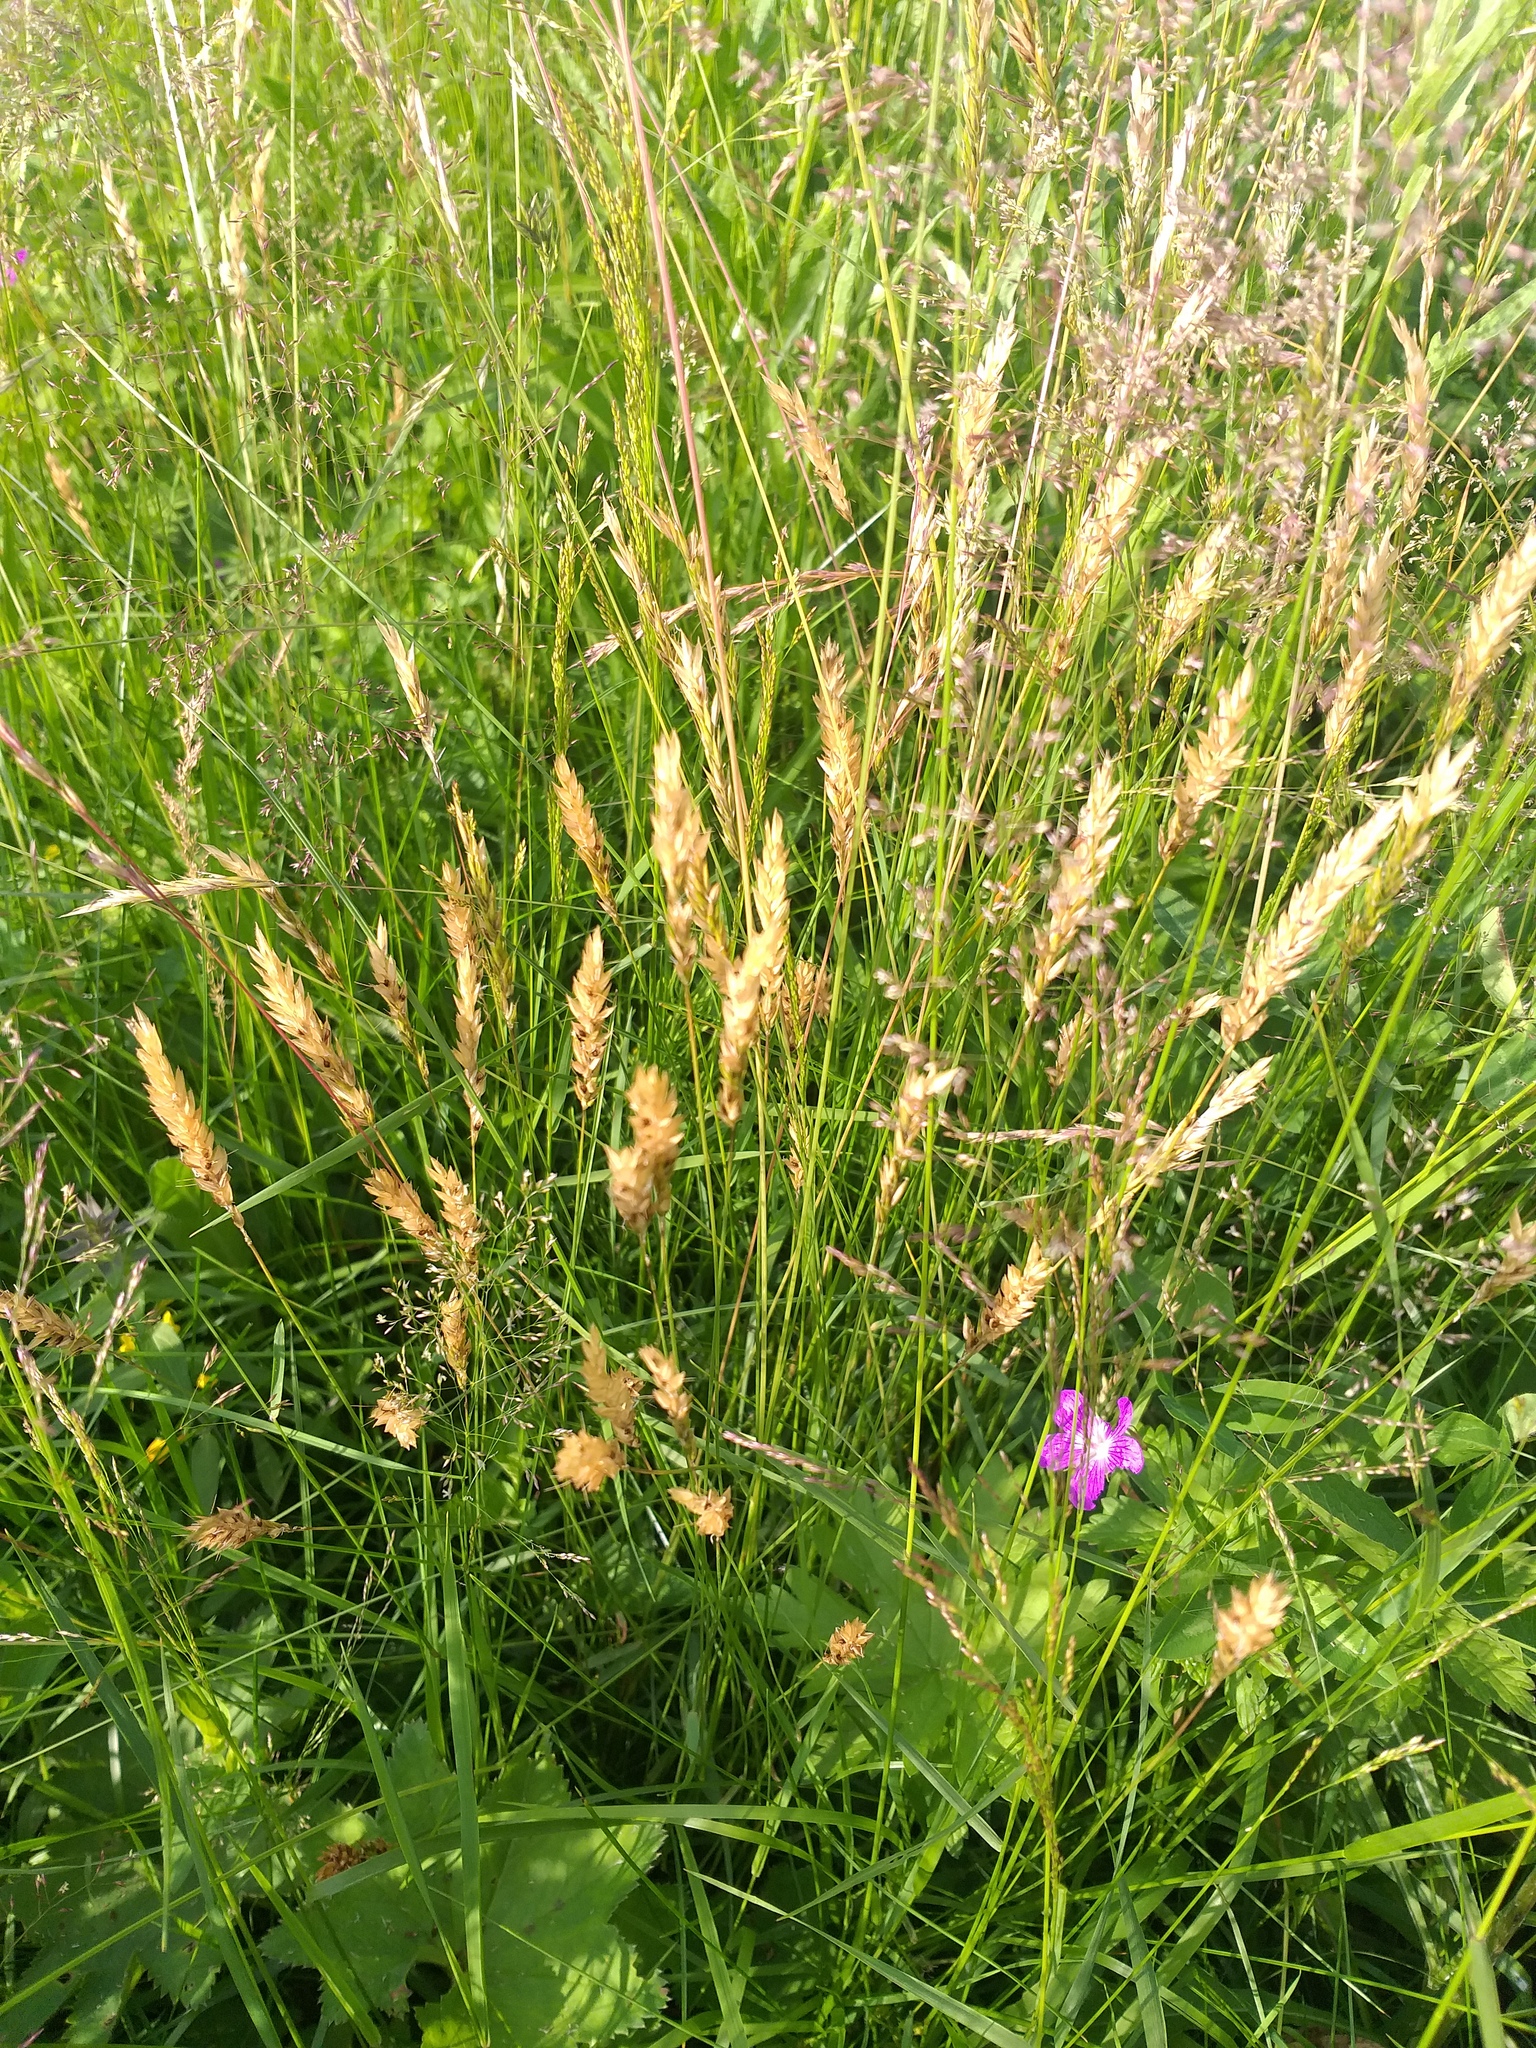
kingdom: Plantae
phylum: Tracheophyta
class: Liliopsida
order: Poales
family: Poaceae
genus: Anthoxanthum
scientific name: Anthoxanthum odoratum
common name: Sweet vernalgrass
